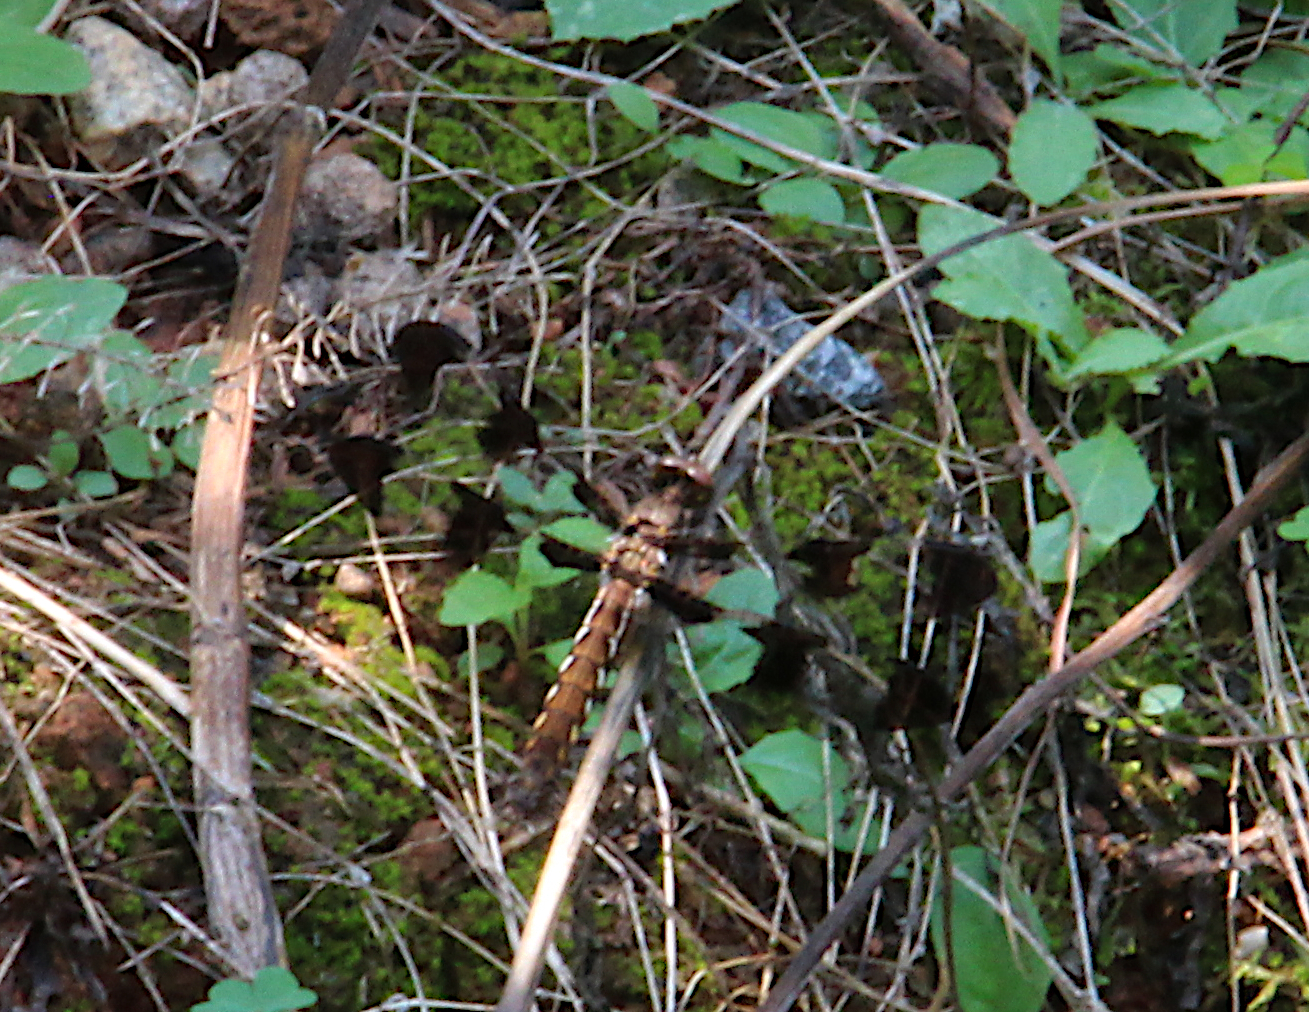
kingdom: Animalia
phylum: Arthropoda
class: Insecta
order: Odonata
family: Libellulidae
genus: Plathemis
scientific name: Plathemis lydia
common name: Common whitetail
